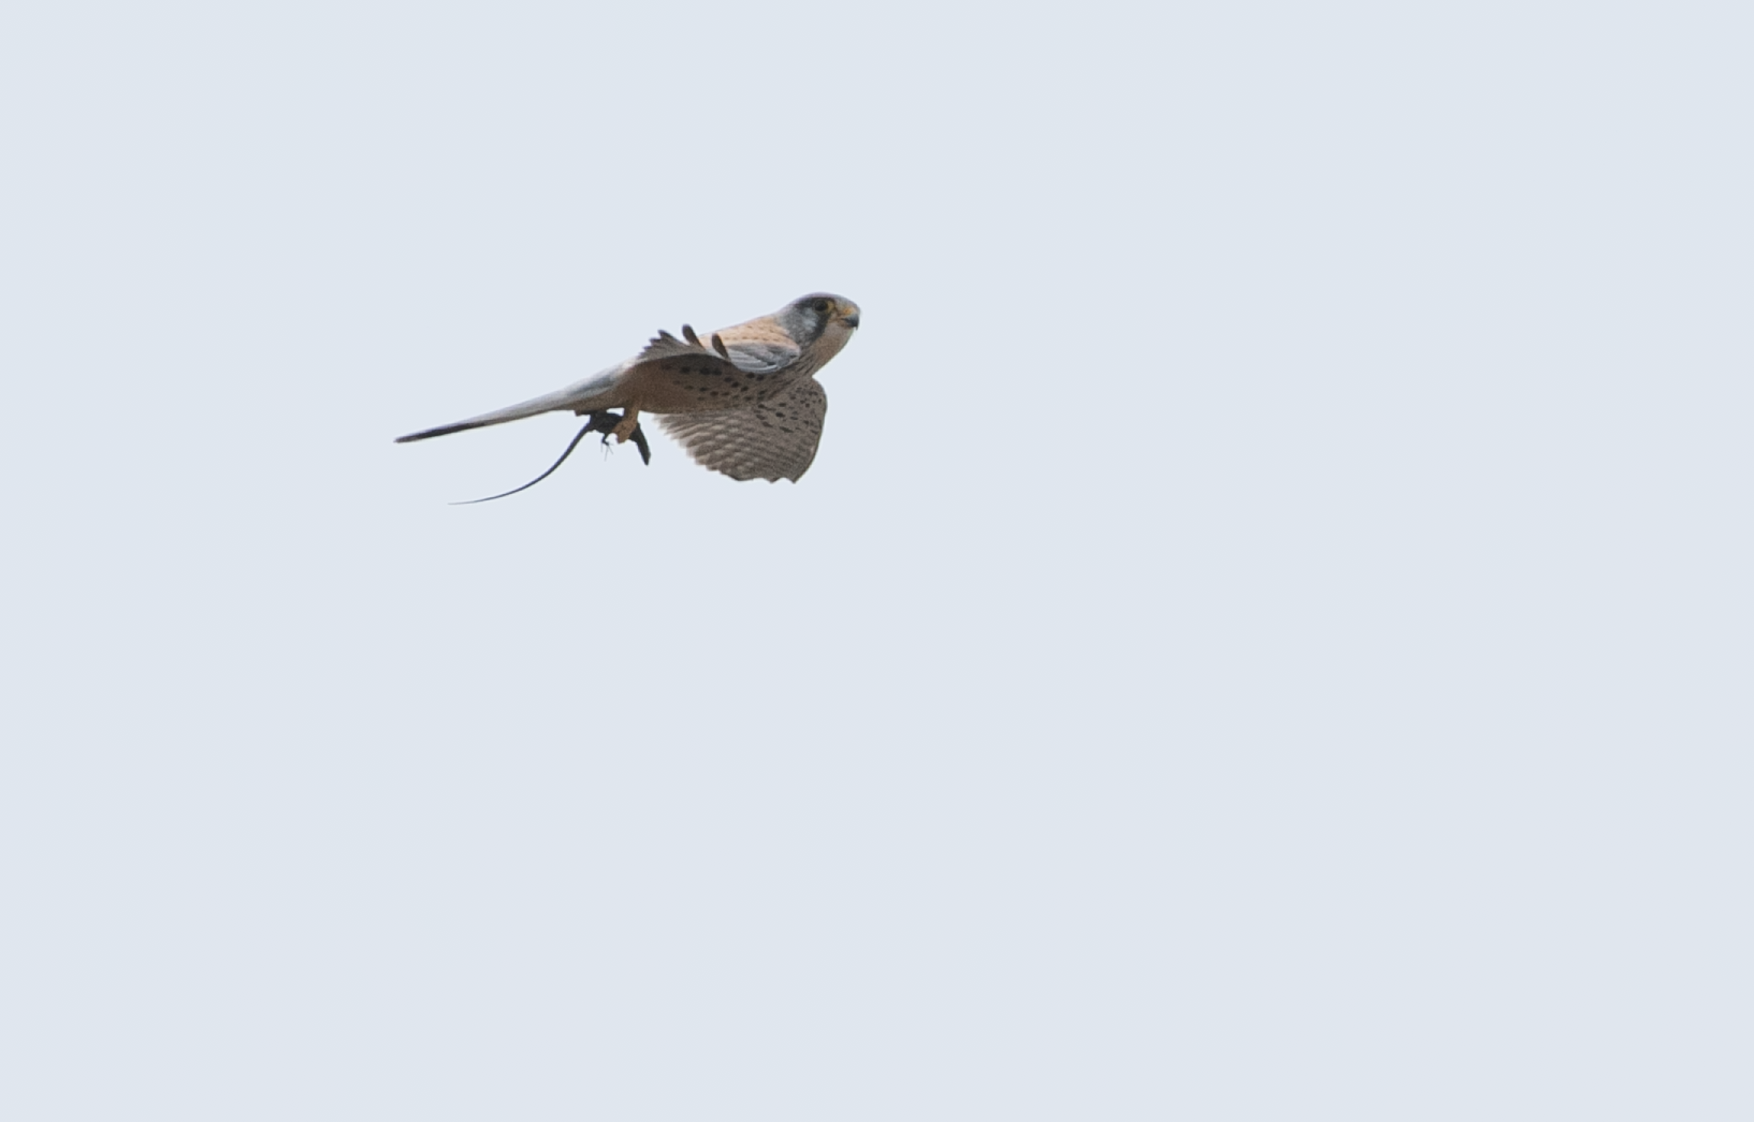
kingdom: Animalia
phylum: Chordata
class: Aves
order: Falconiformes
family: Falconidae
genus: Falco
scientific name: Falco tinnunculus
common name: Common kestrel
